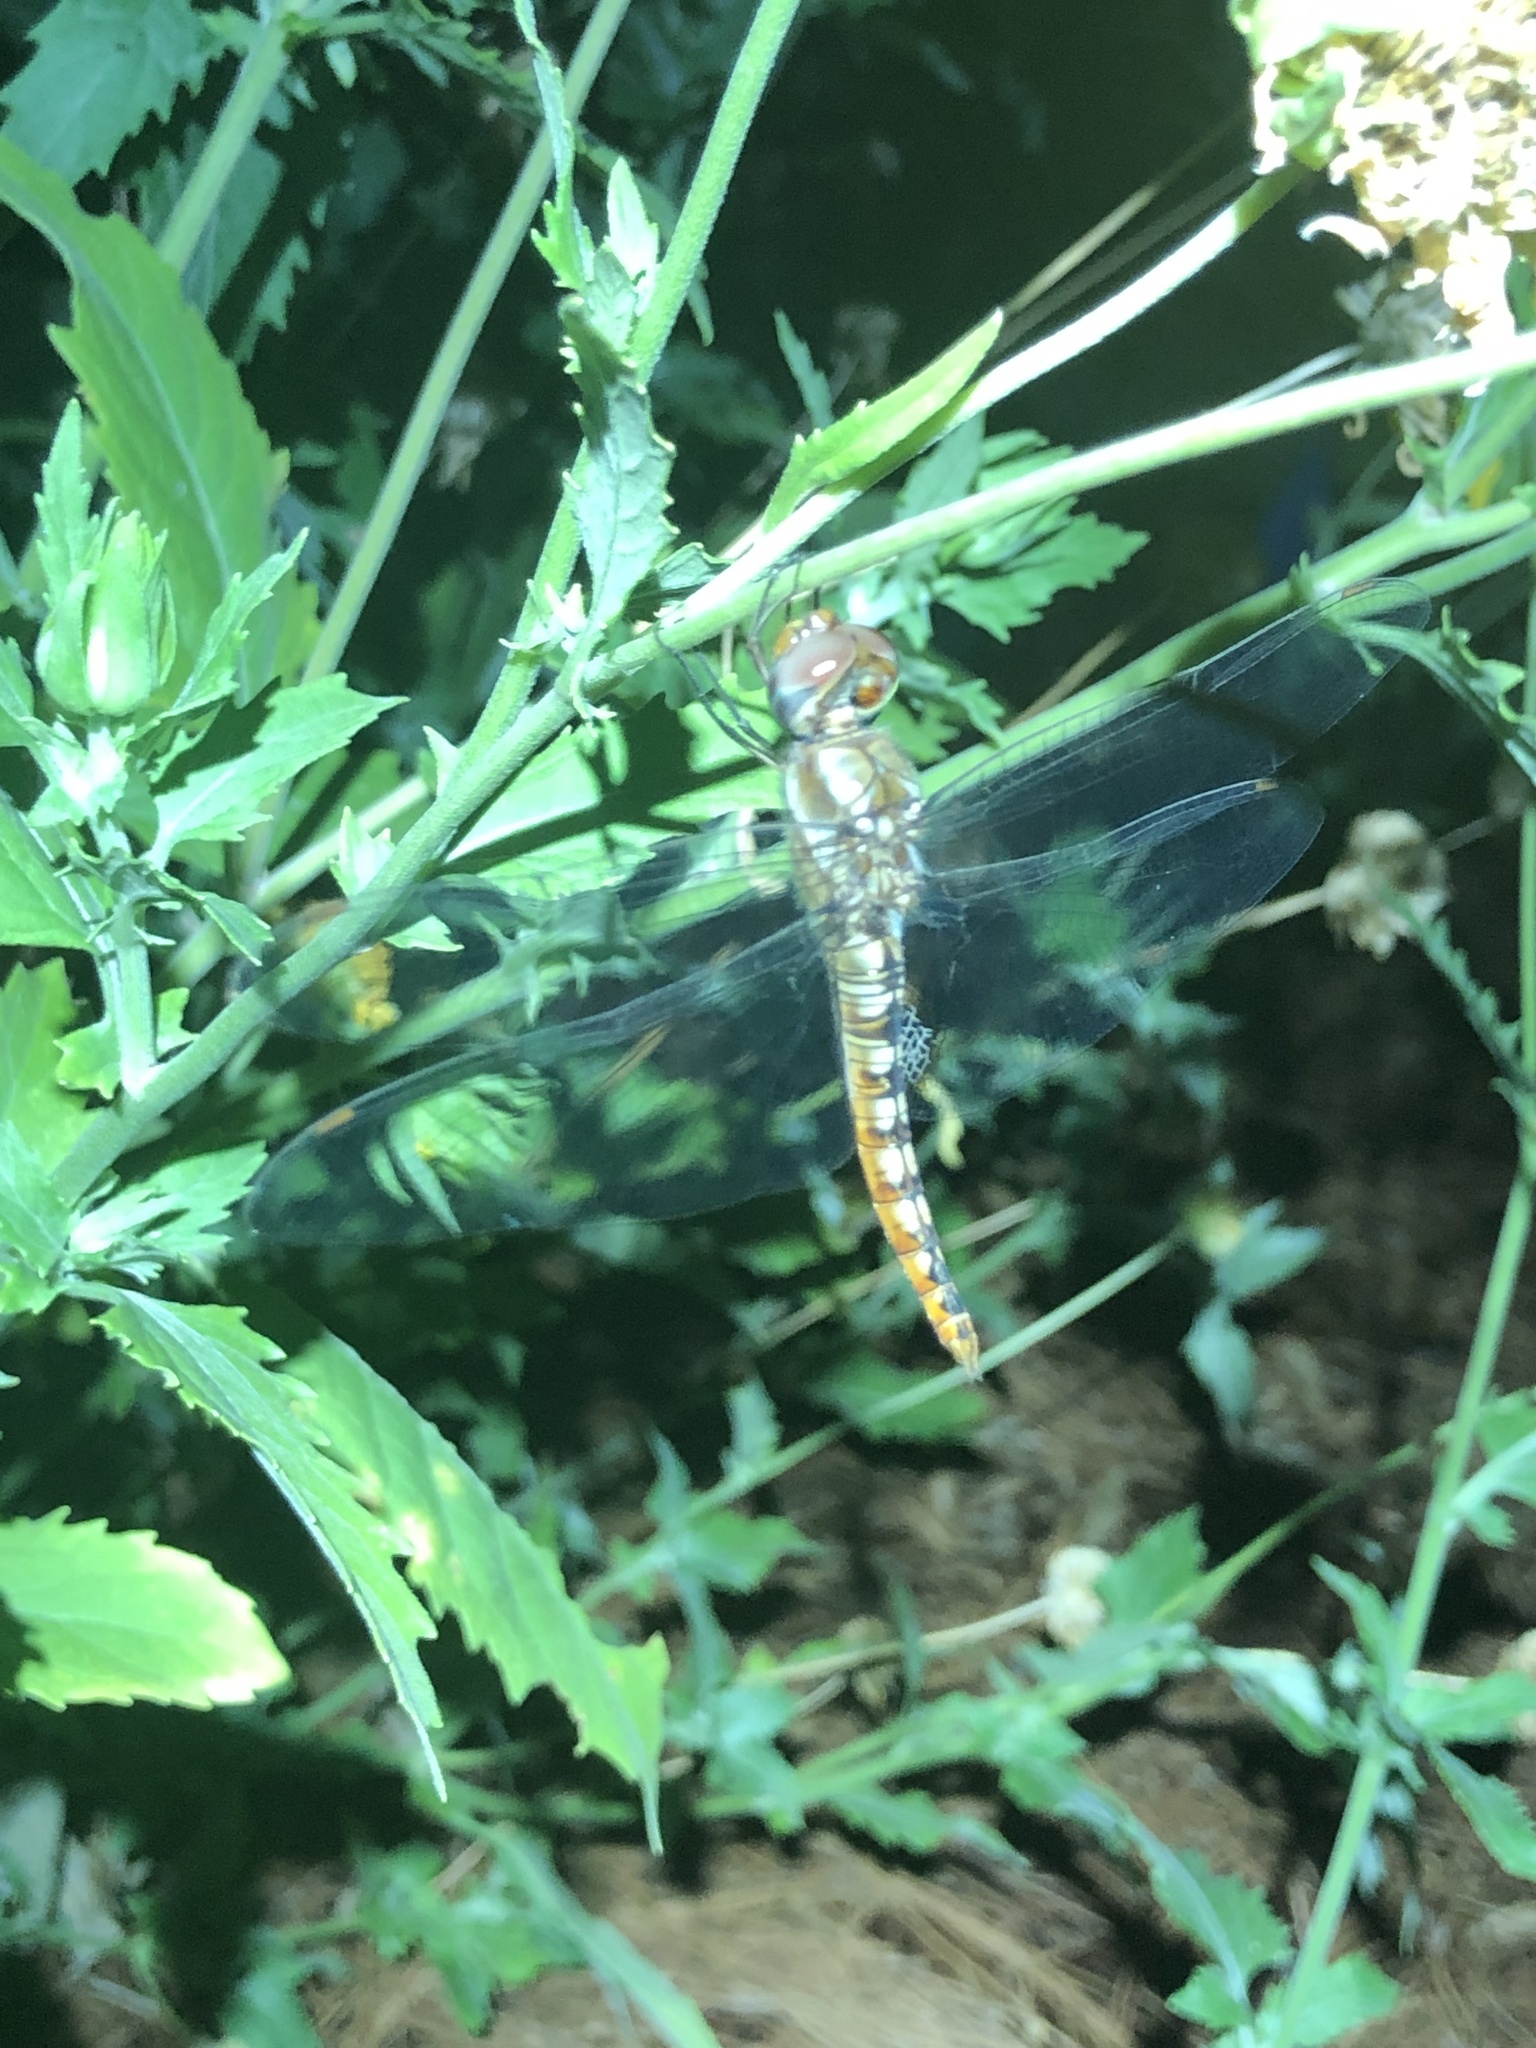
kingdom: Animalia
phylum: Arthropoda
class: Insecta
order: Odonata
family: Libellulidae
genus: Pantala
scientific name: Pantala hymenaea
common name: Spot-winged glider
